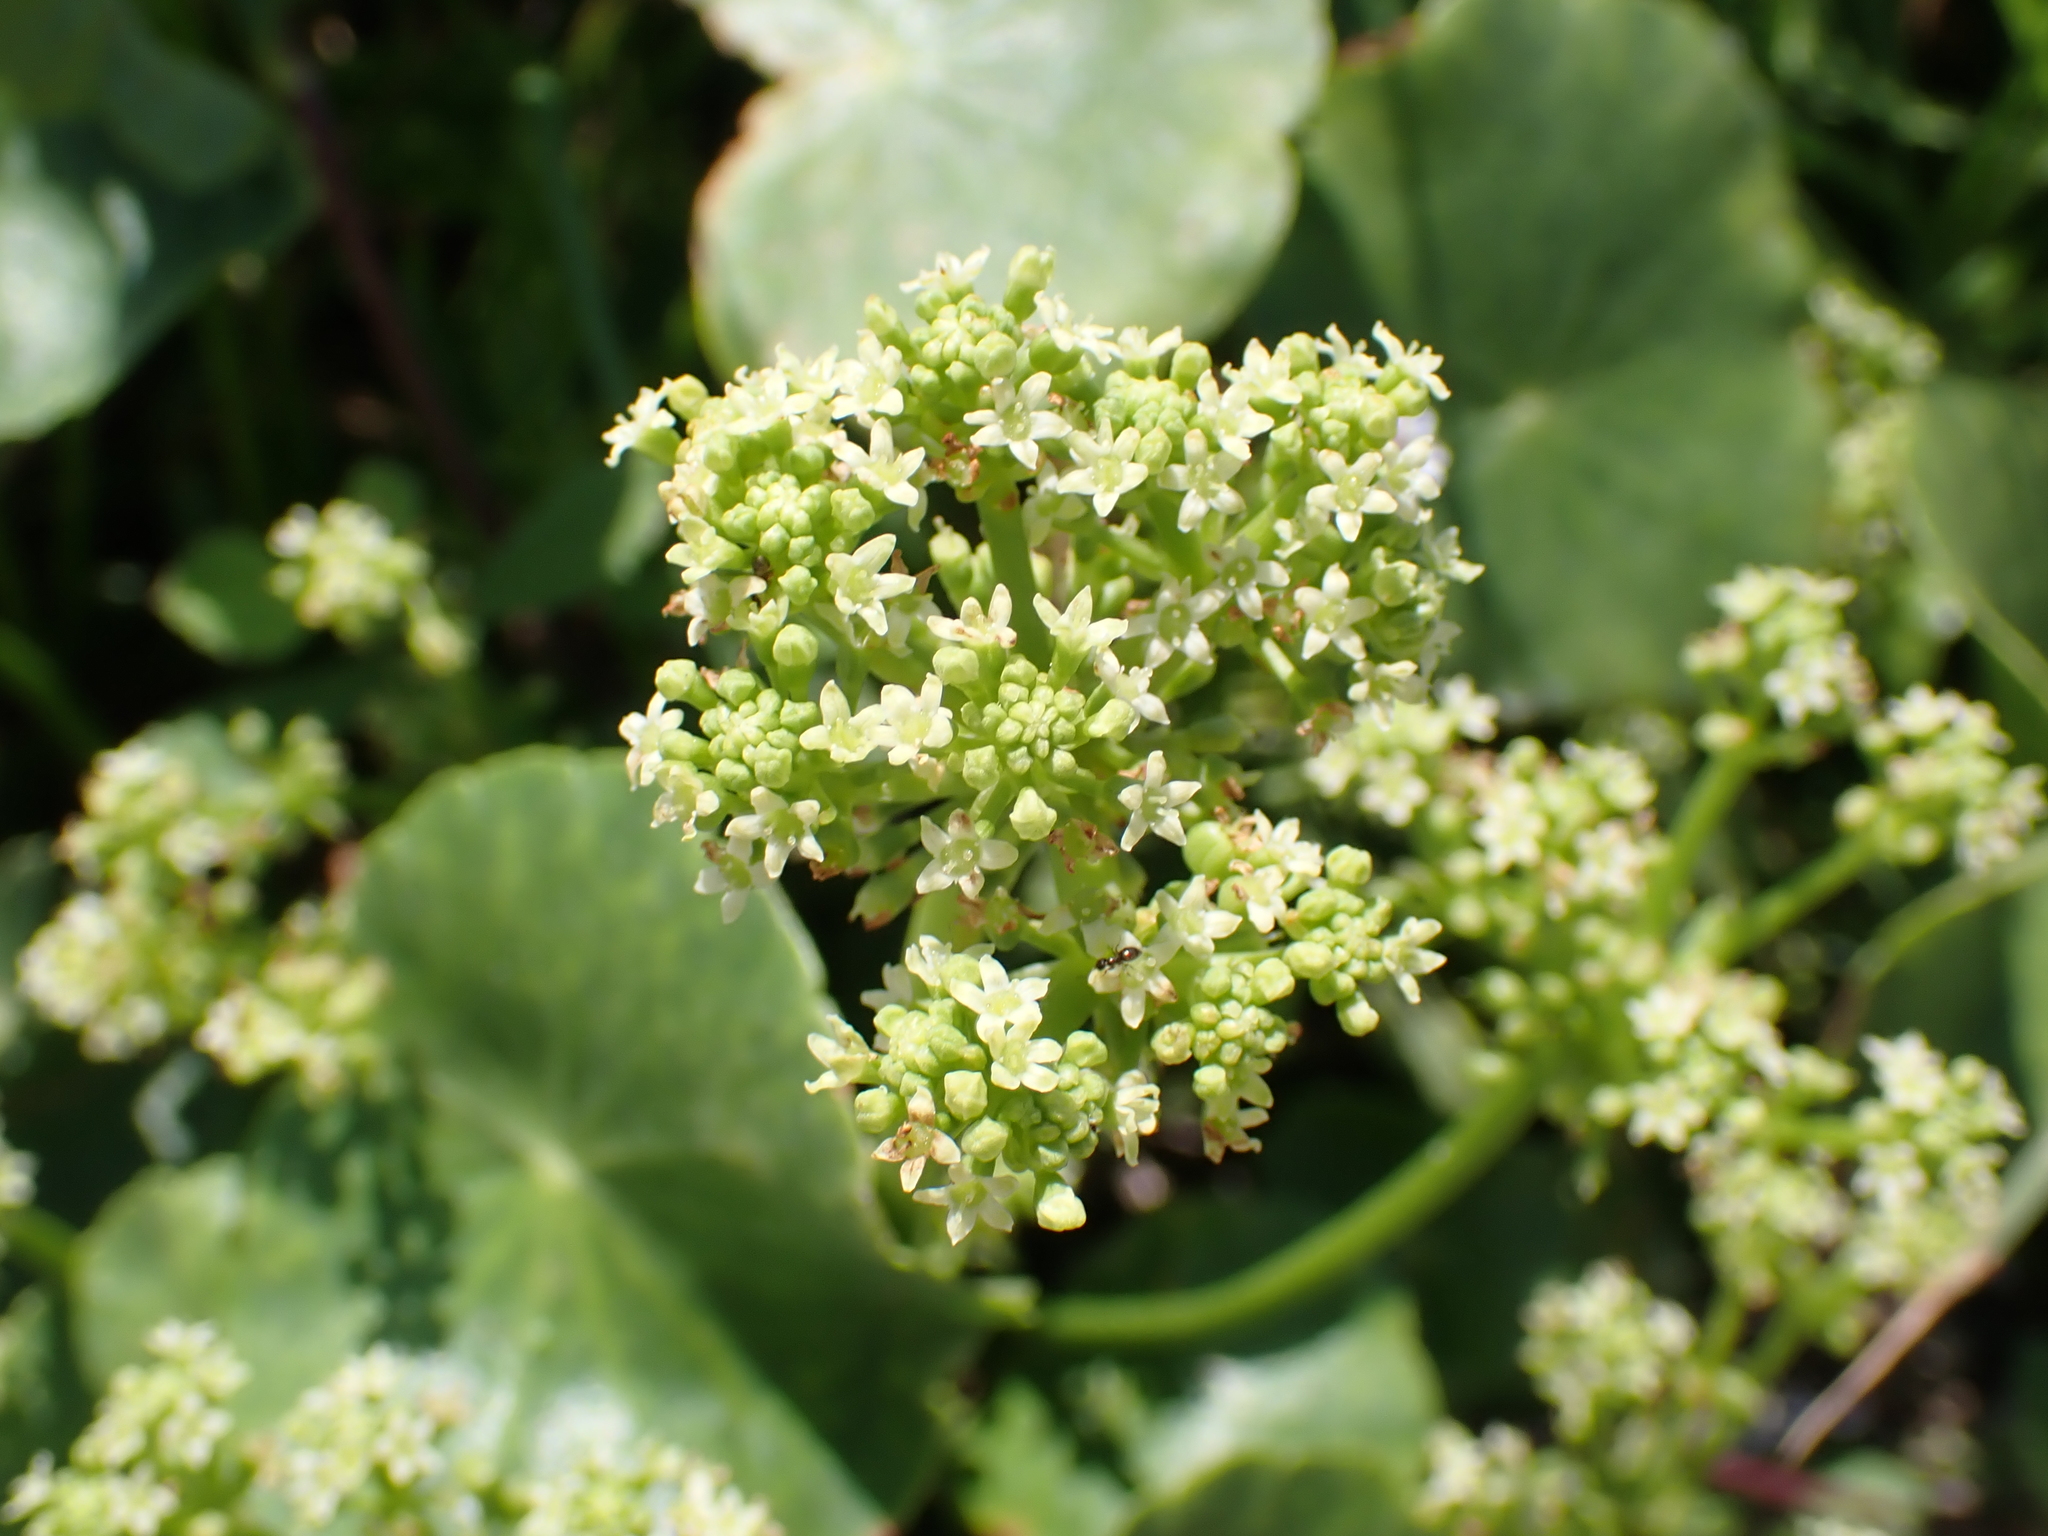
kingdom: Plantae
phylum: Tracheophyta
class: Magnoliopsida
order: Apiales
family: Araliaceae
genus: Hydrocotyle
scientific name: Hydrocotyle bonariensis
